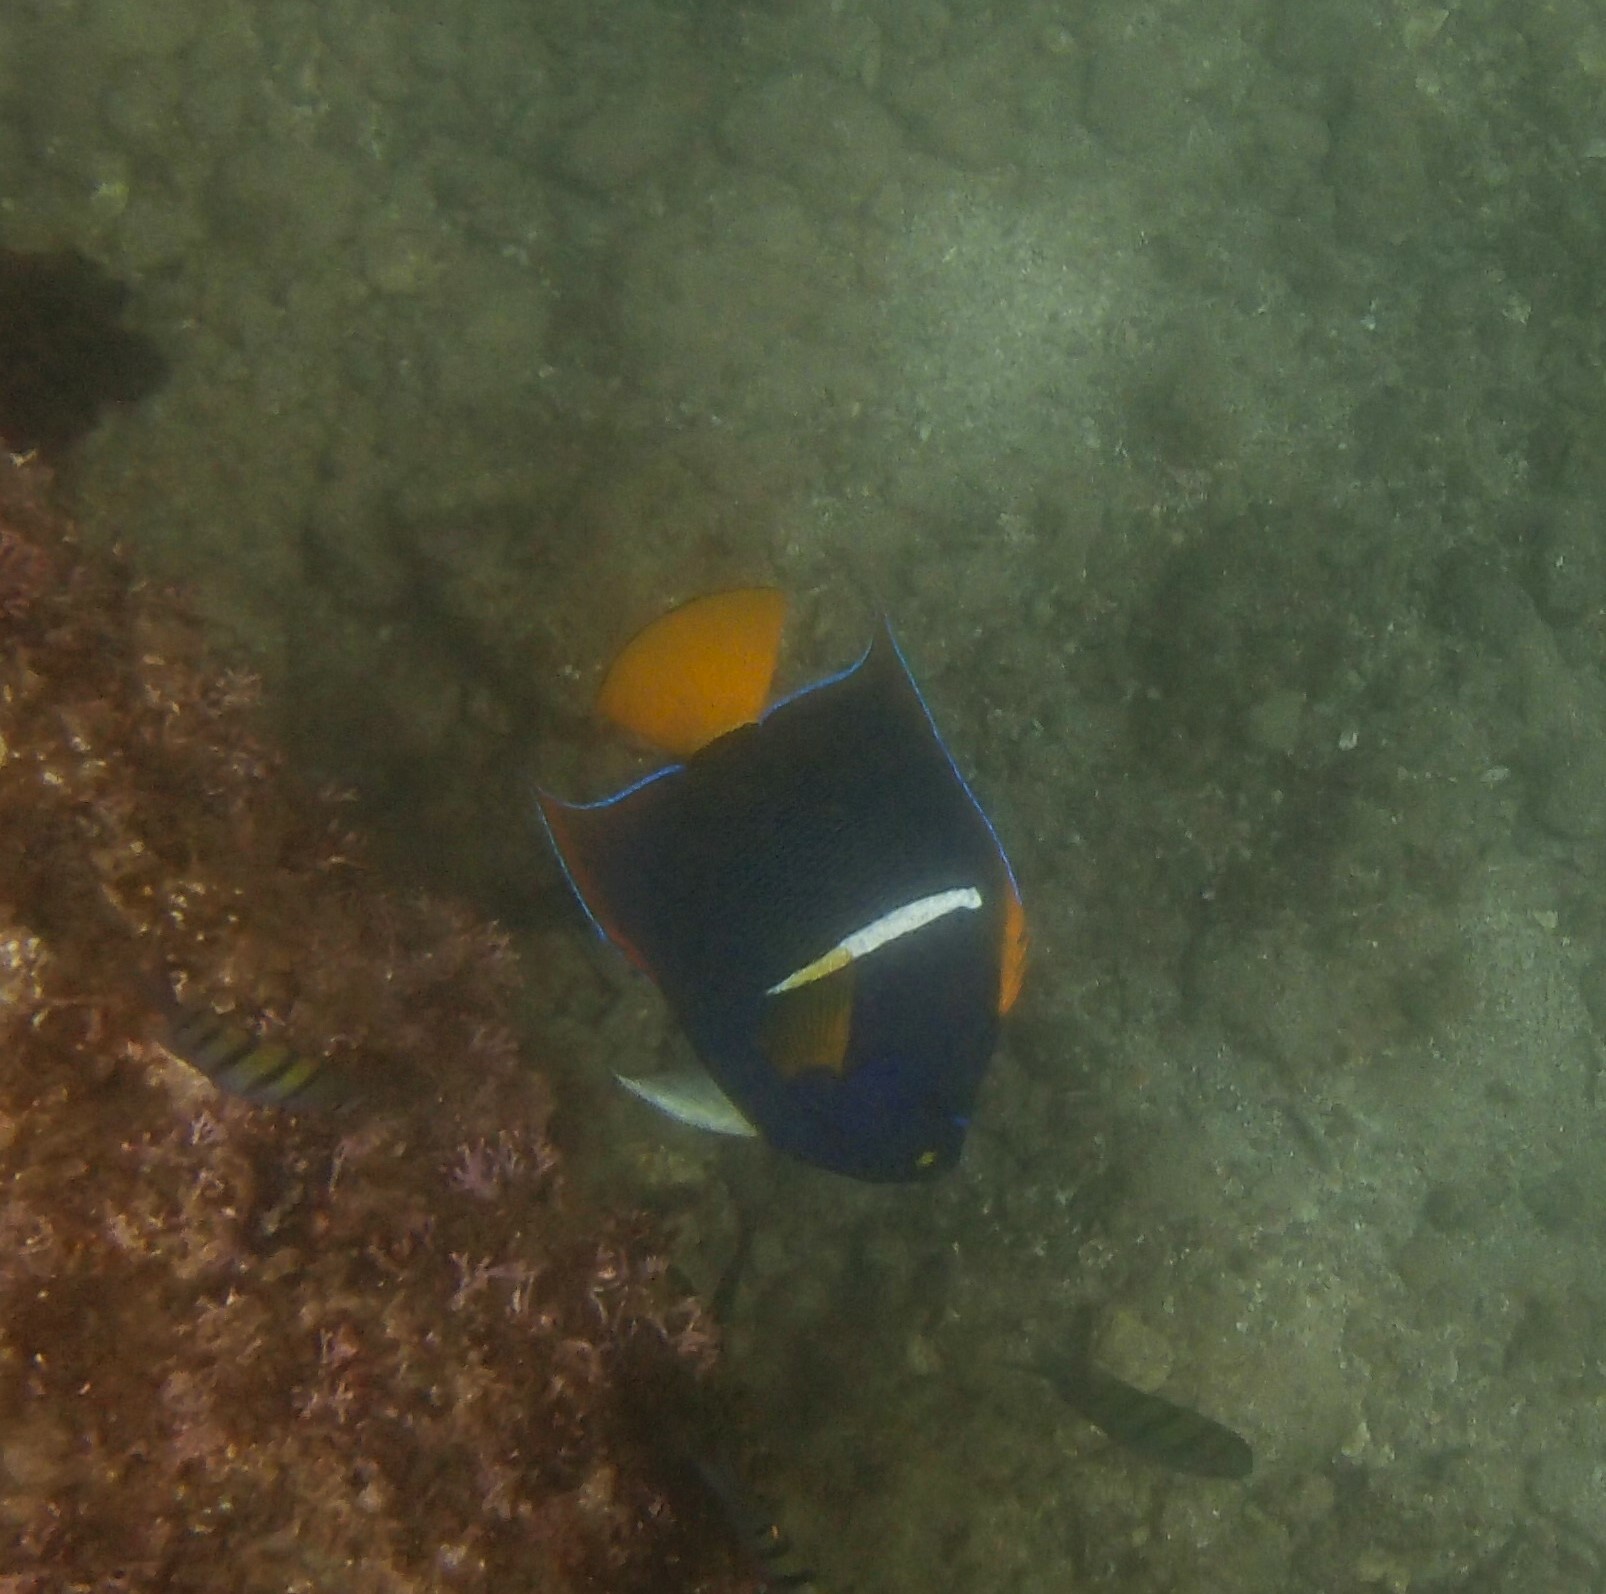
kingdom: Animalia
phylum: Chordata
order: Perciformes
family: Pomacanthidae
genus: Holacanthus
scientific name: Holacanthus passer
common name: King angelfish
